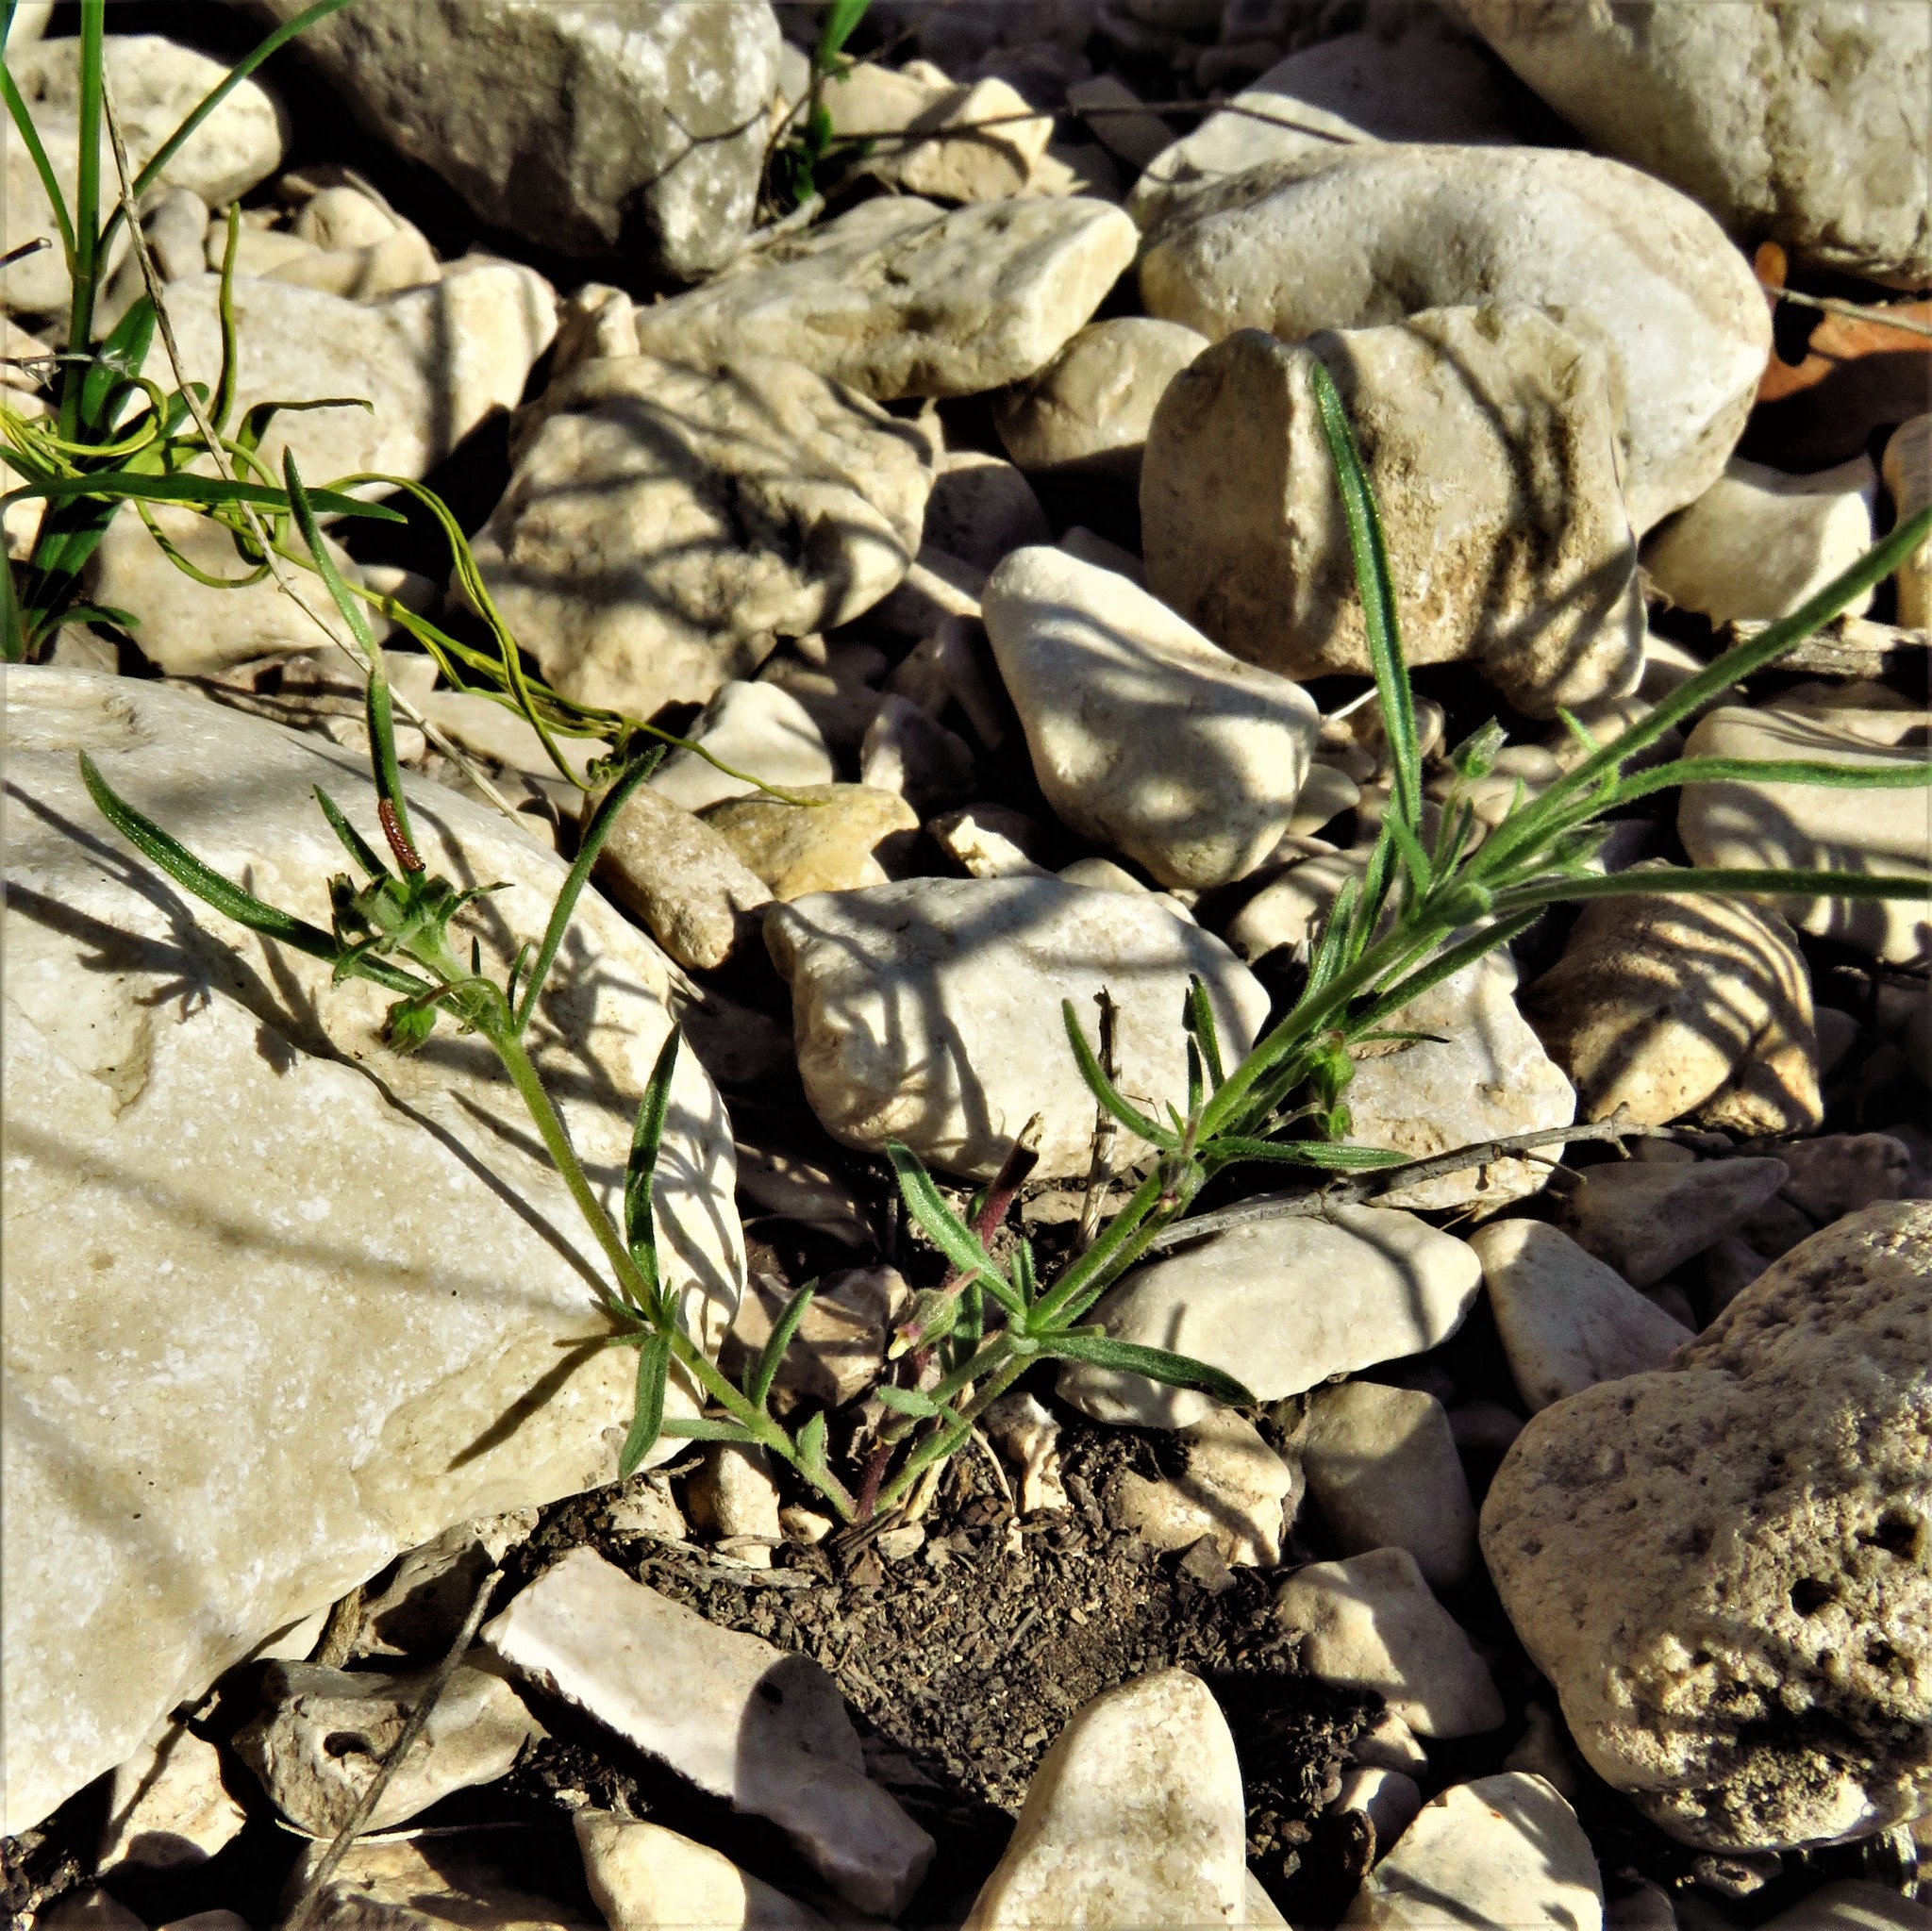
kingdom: Plantae
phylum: Tracheophyta
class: Magnoliopsida
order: Malpighiales
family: Violaceae
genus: Pombalia
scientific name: Pombalia verticillata
